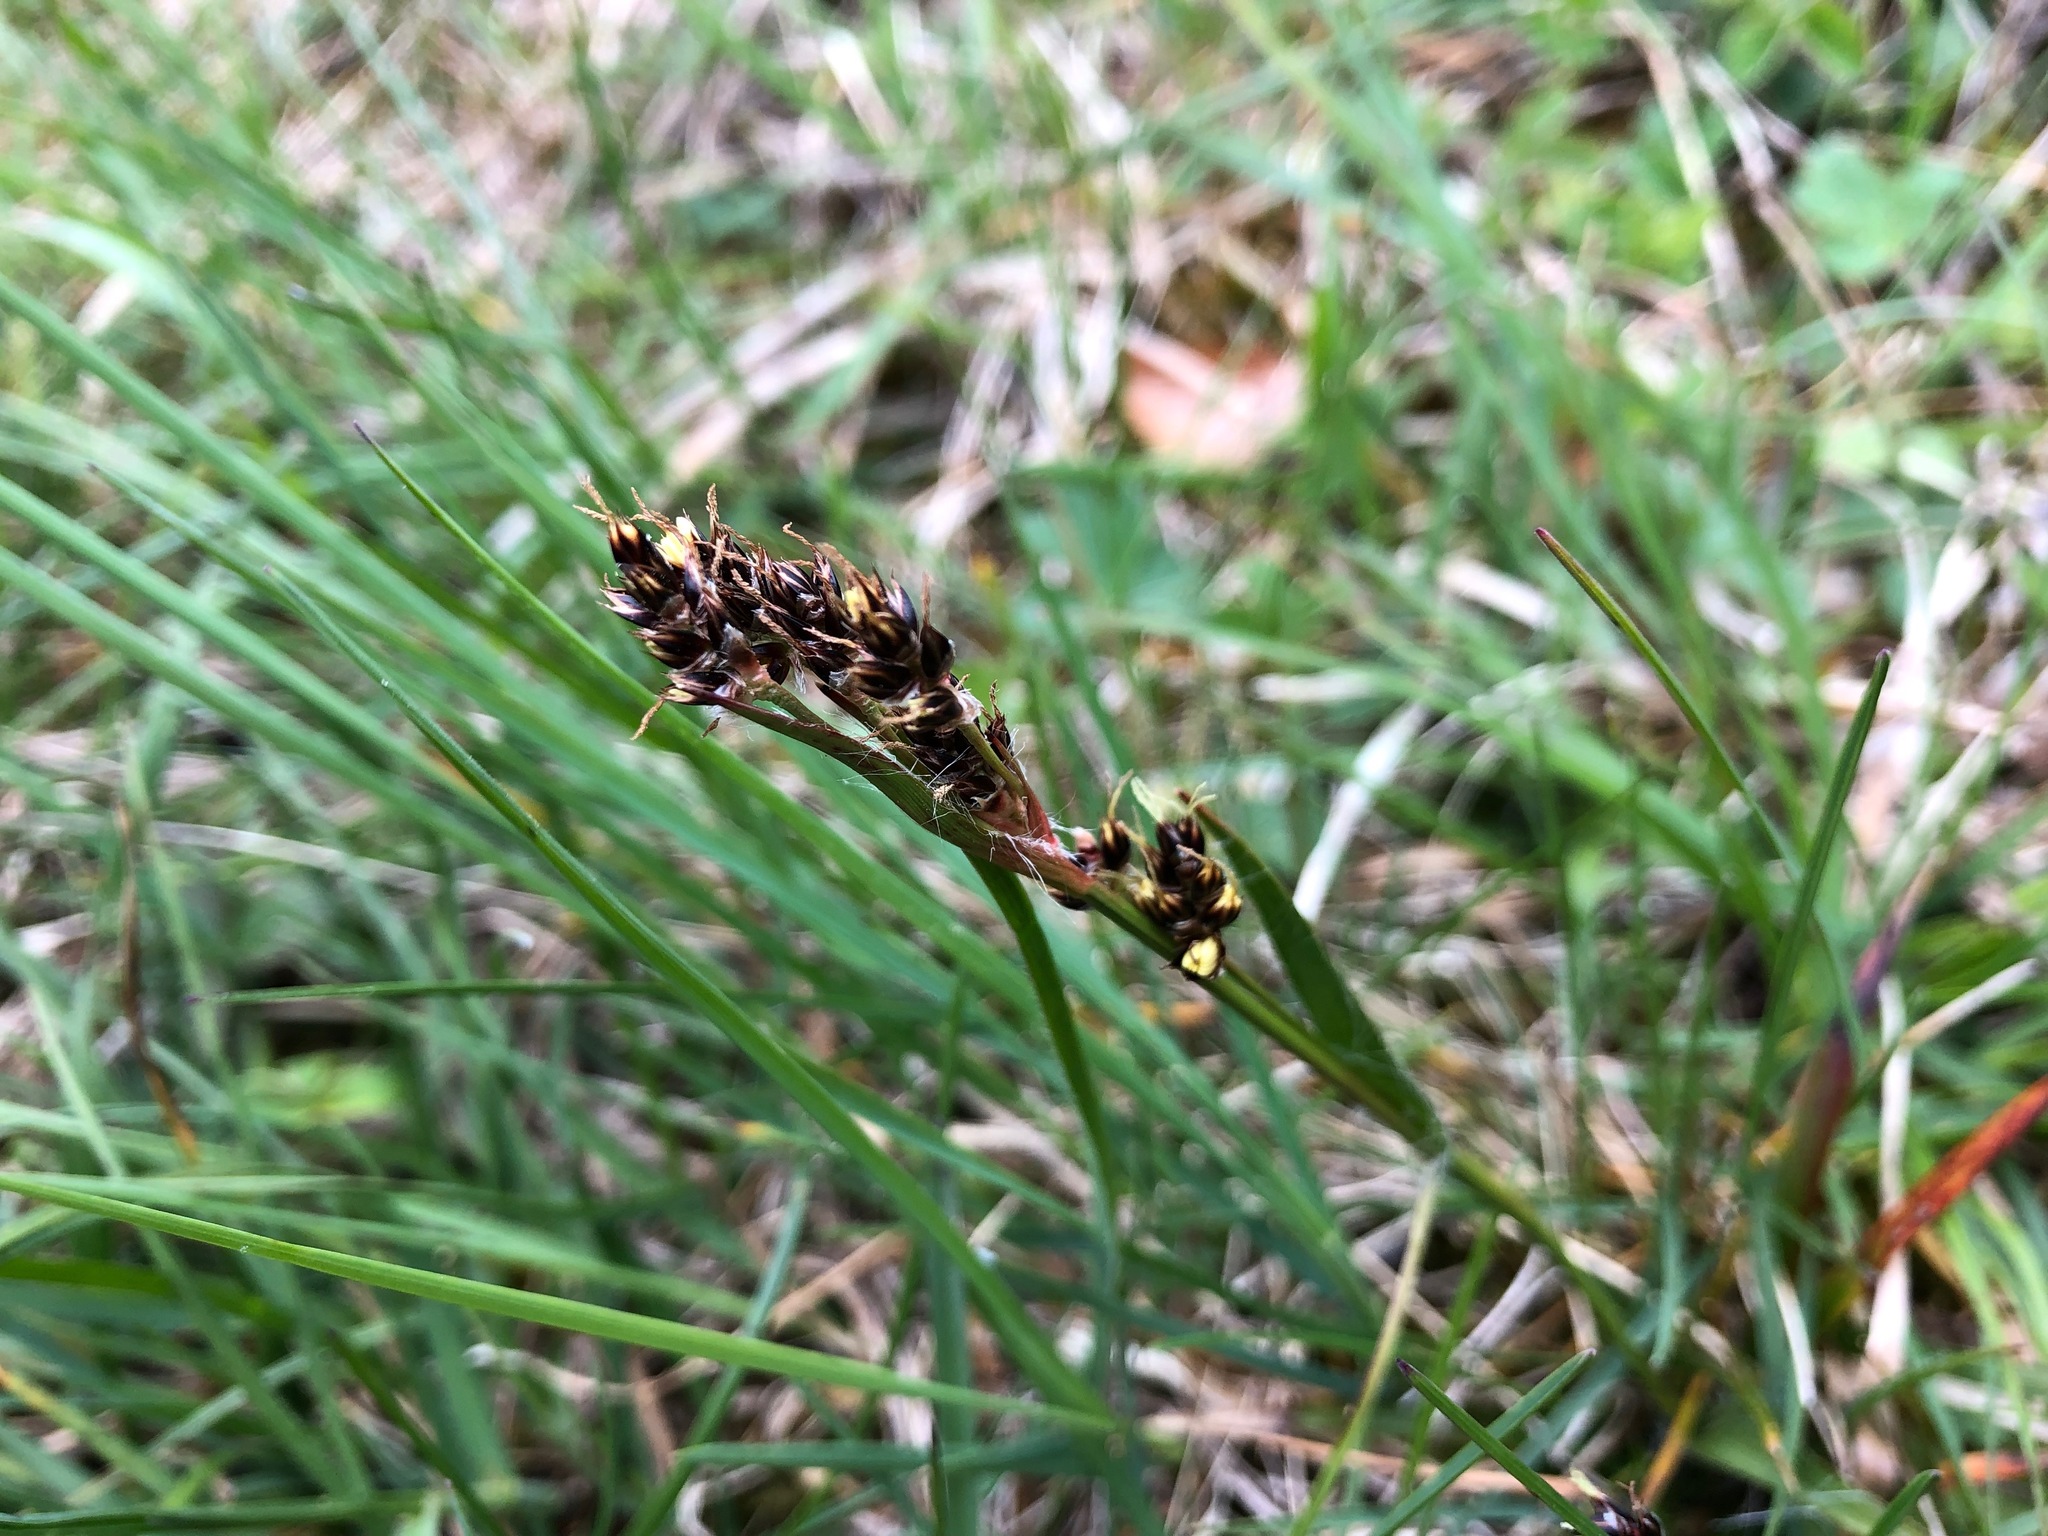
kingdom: Plantae
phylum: Tracheophyta
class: Liliopsida
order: Poales
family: Juncaceae
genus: Luzula
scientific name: Luzula campestris
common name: Field wood-rush
